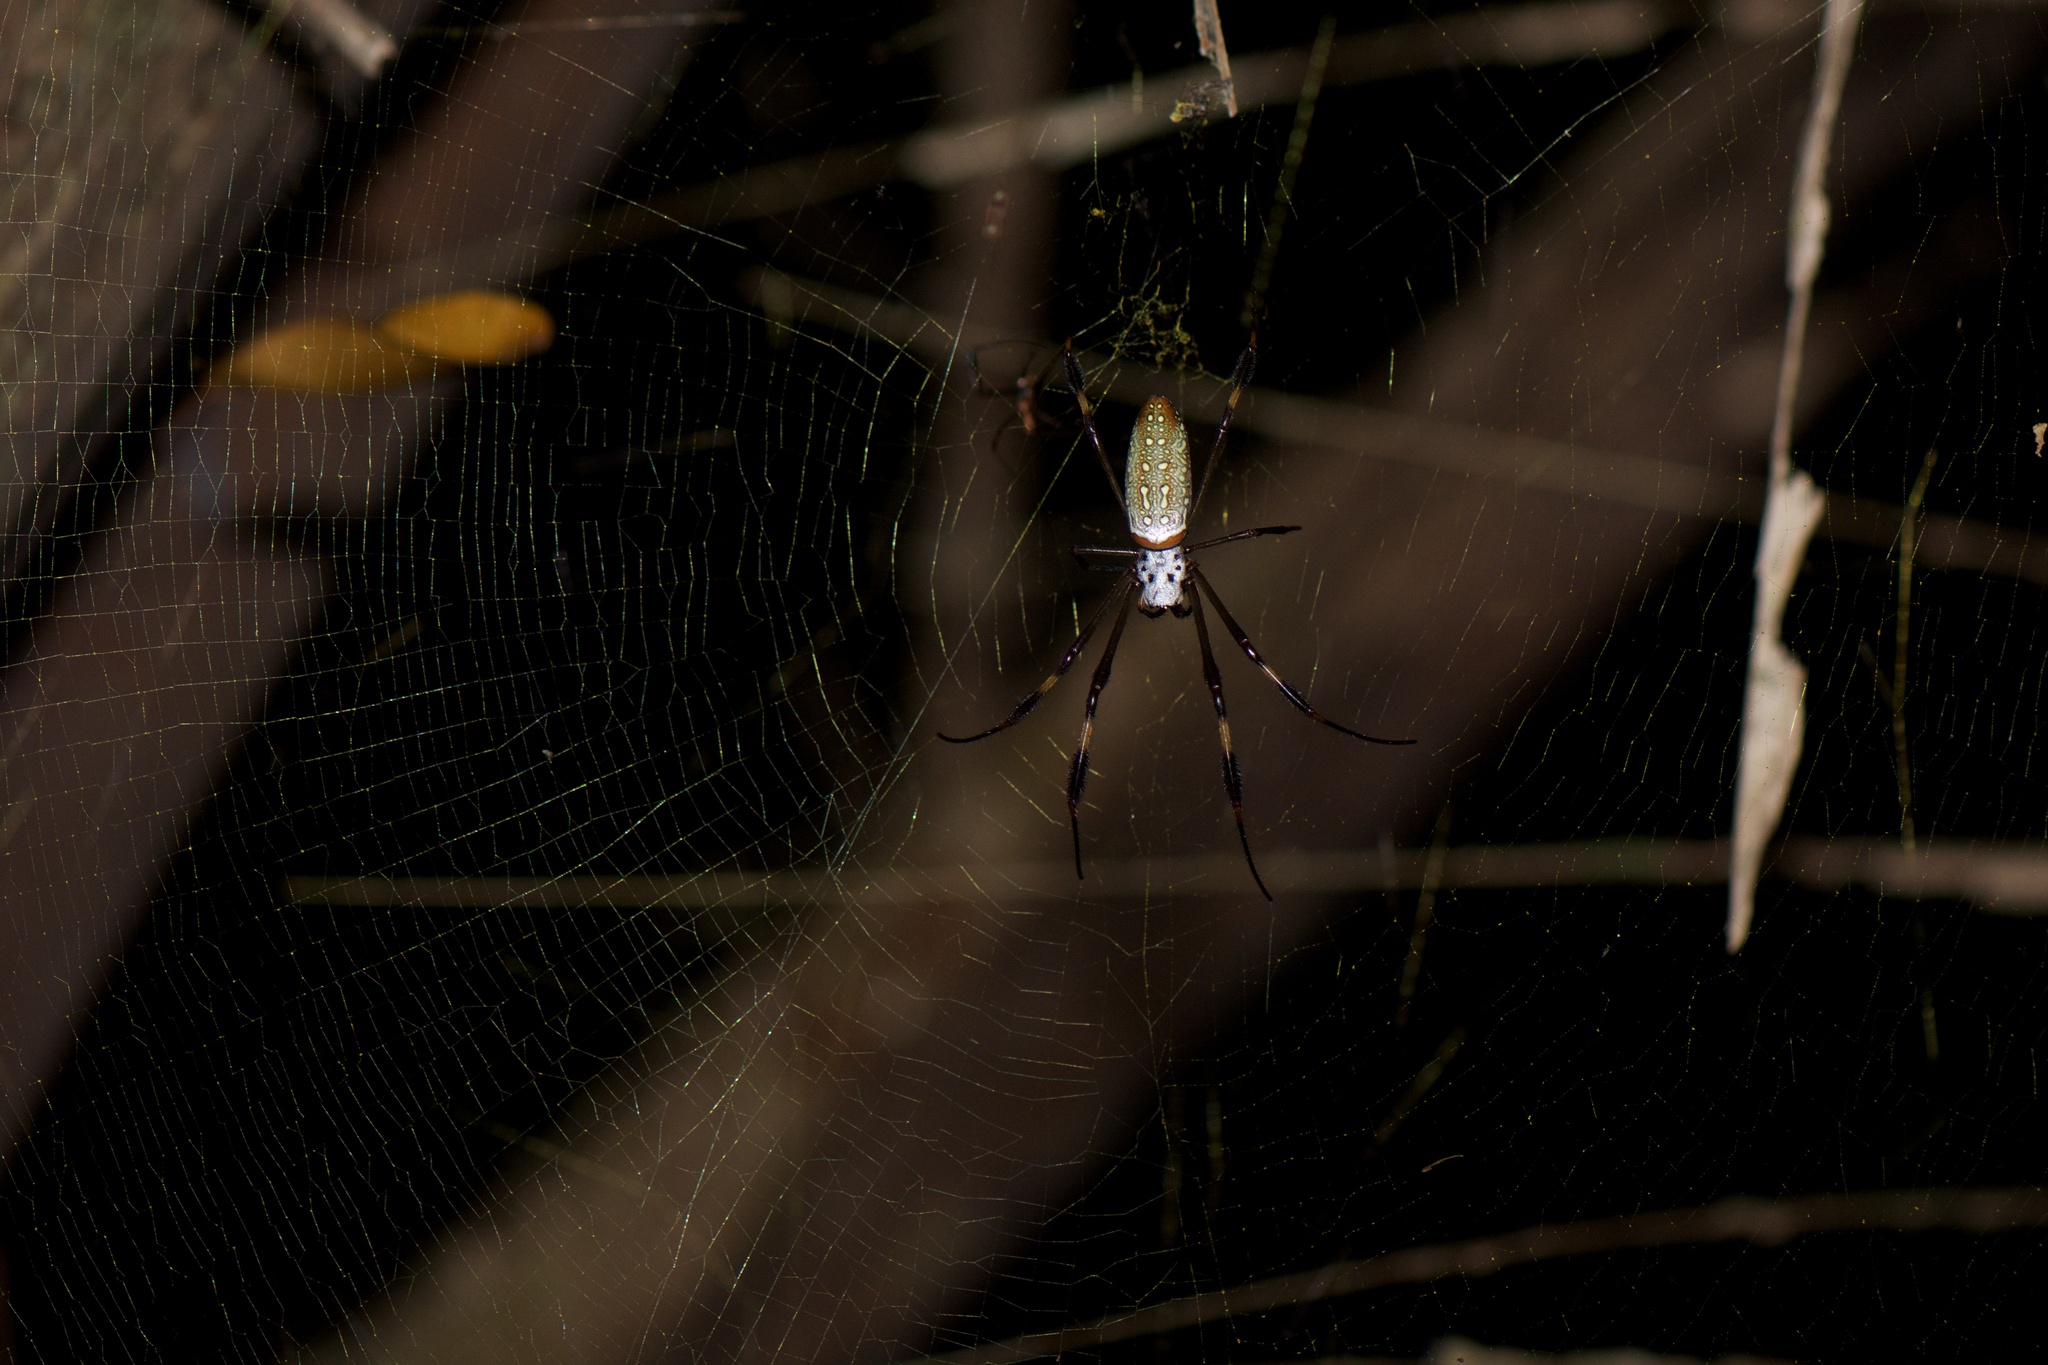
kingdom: Animalia
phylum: Arthropoda
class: Arachnida
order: Araneae
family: Araneidae
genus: Trichonephila
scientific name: Trichonephila clavipes
